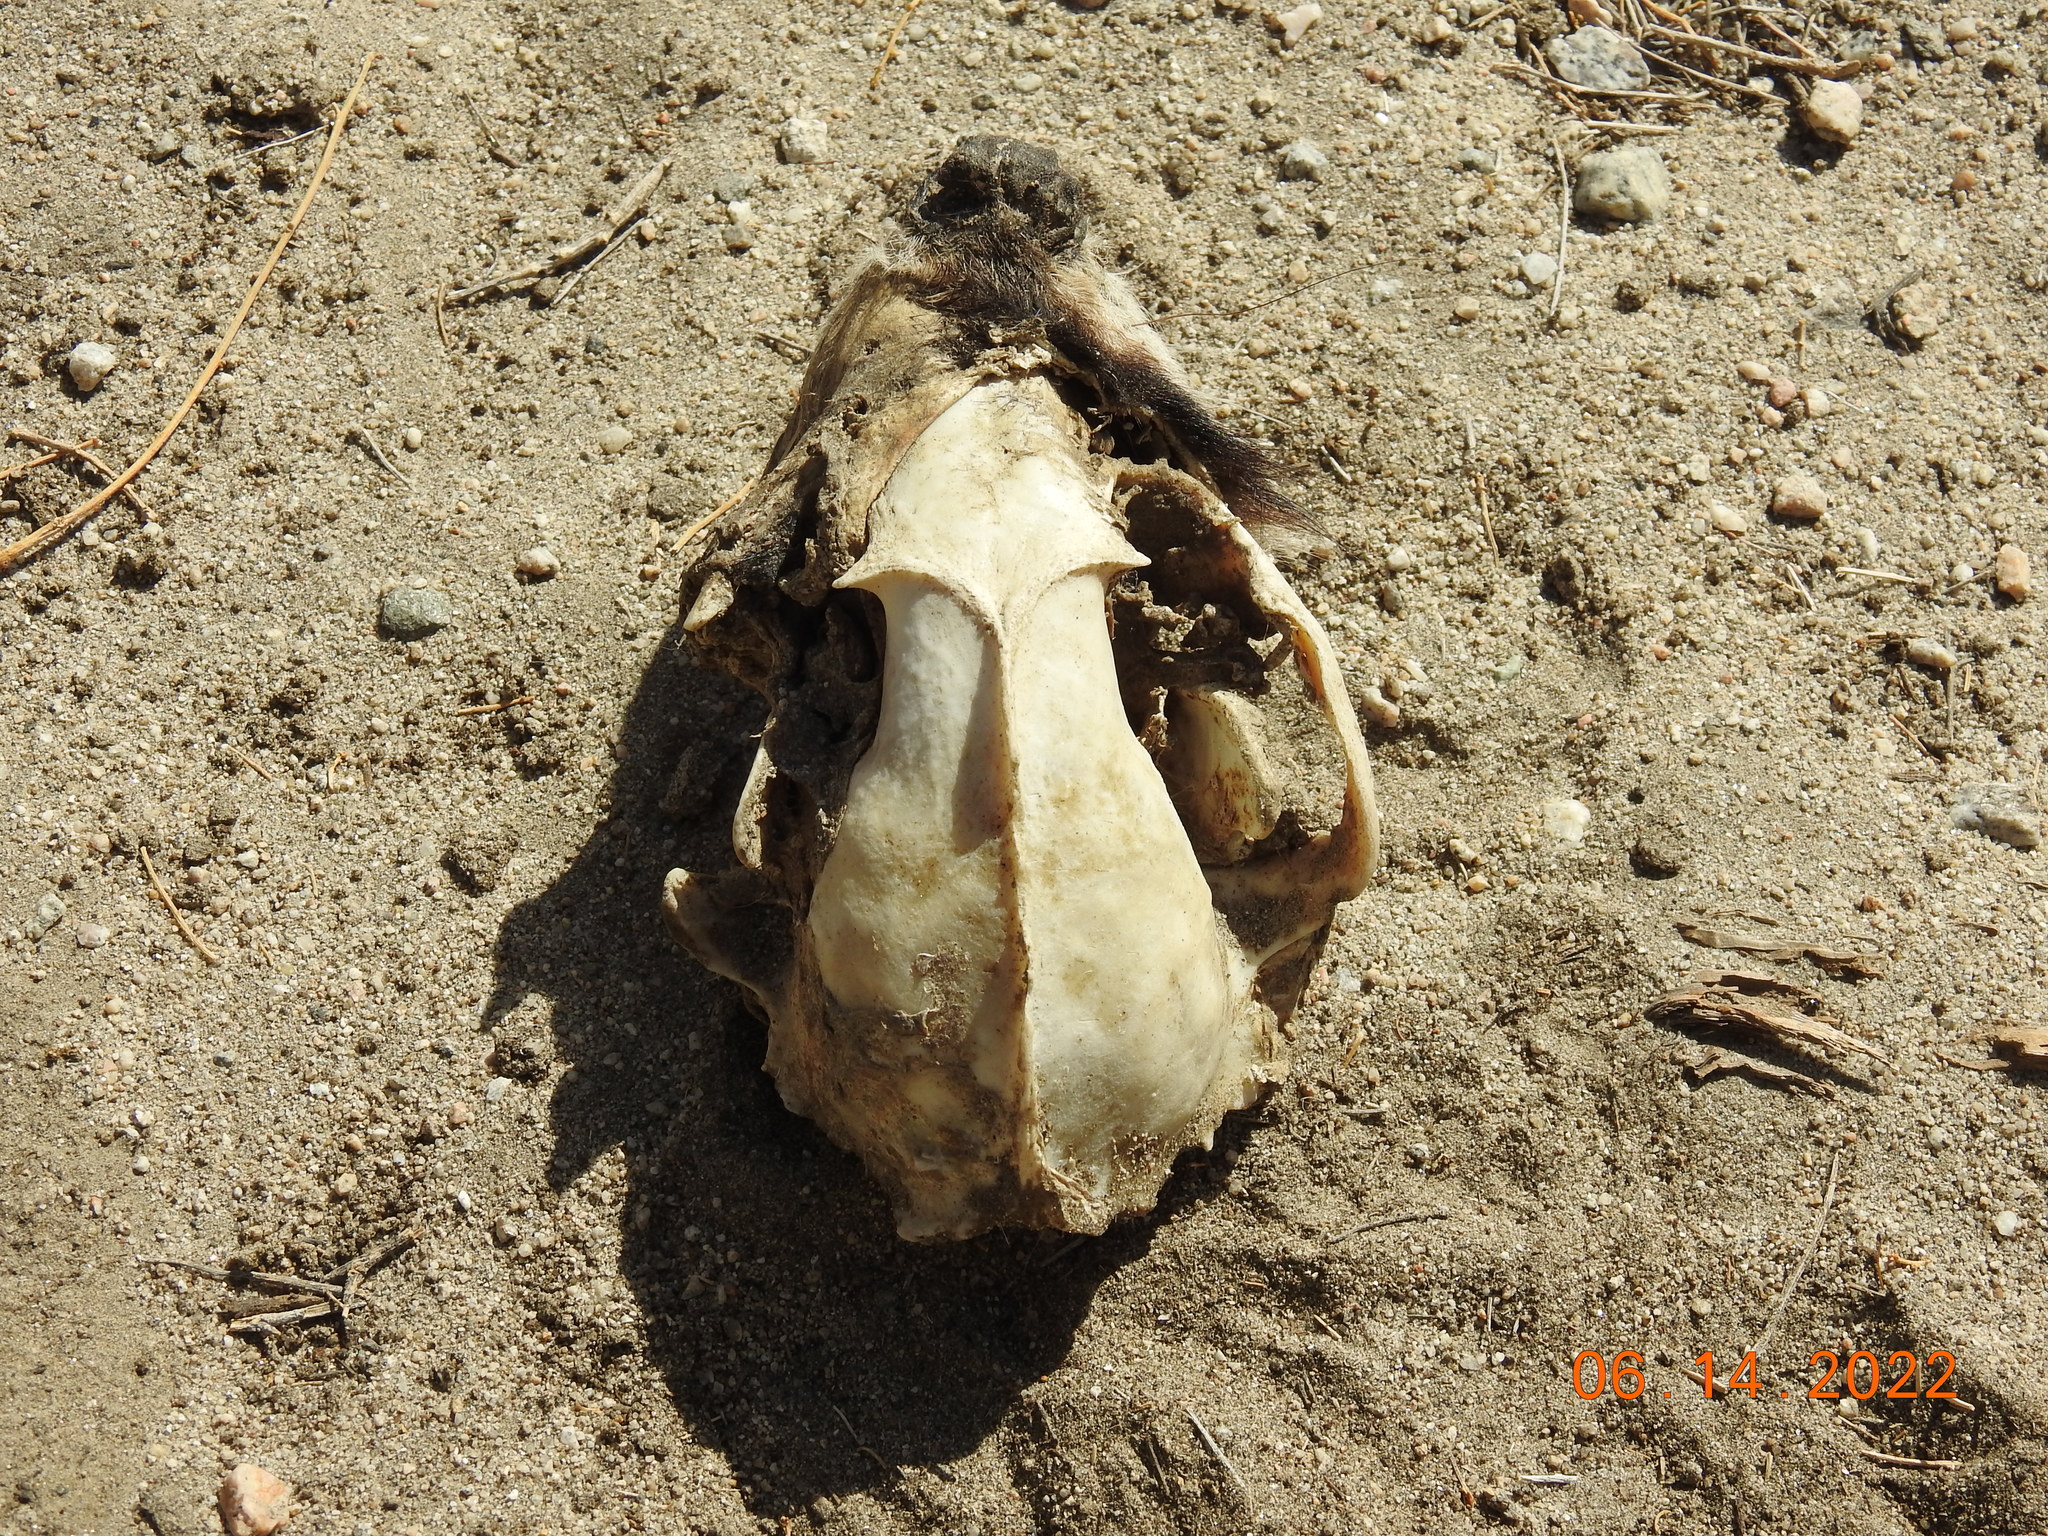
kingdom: Animalia
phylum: Chordata
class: Mammalia
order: Carnivora
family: Procyonidae
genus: Procyon
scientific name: Procyon lotor
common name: Raccoon
